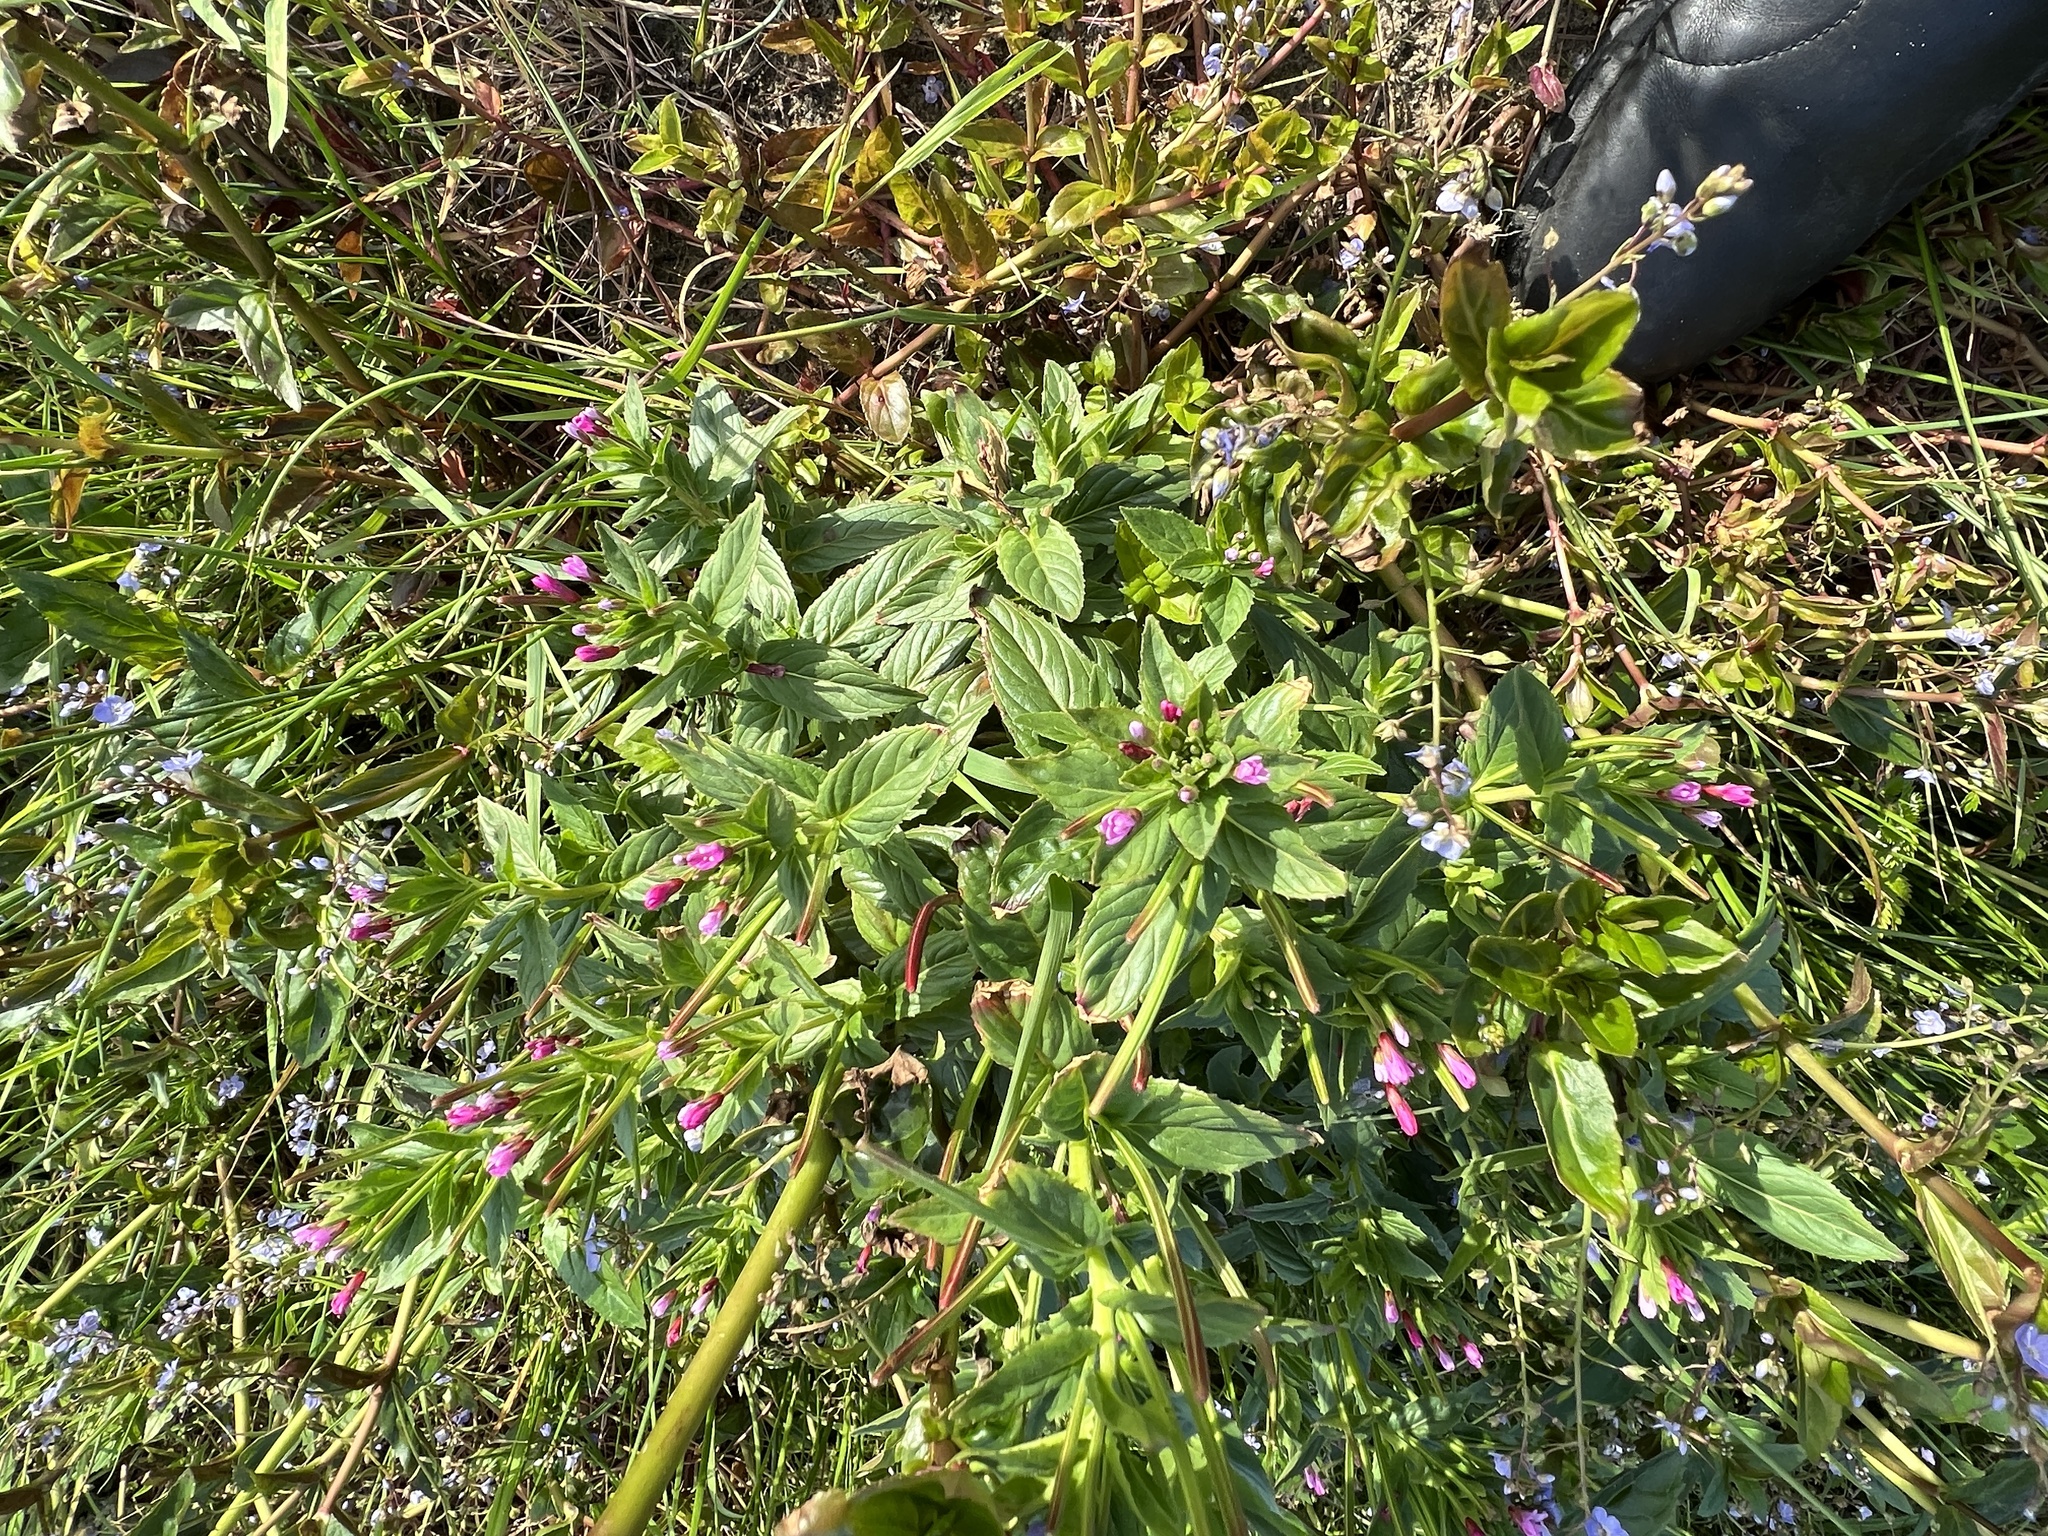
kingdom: Plantae
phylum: Tracheophyta
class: Magnoliopsida
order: Myrtales
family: Onagraceae
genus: Epilobium
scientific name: Epilobium ciliatum
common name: American willowherb
